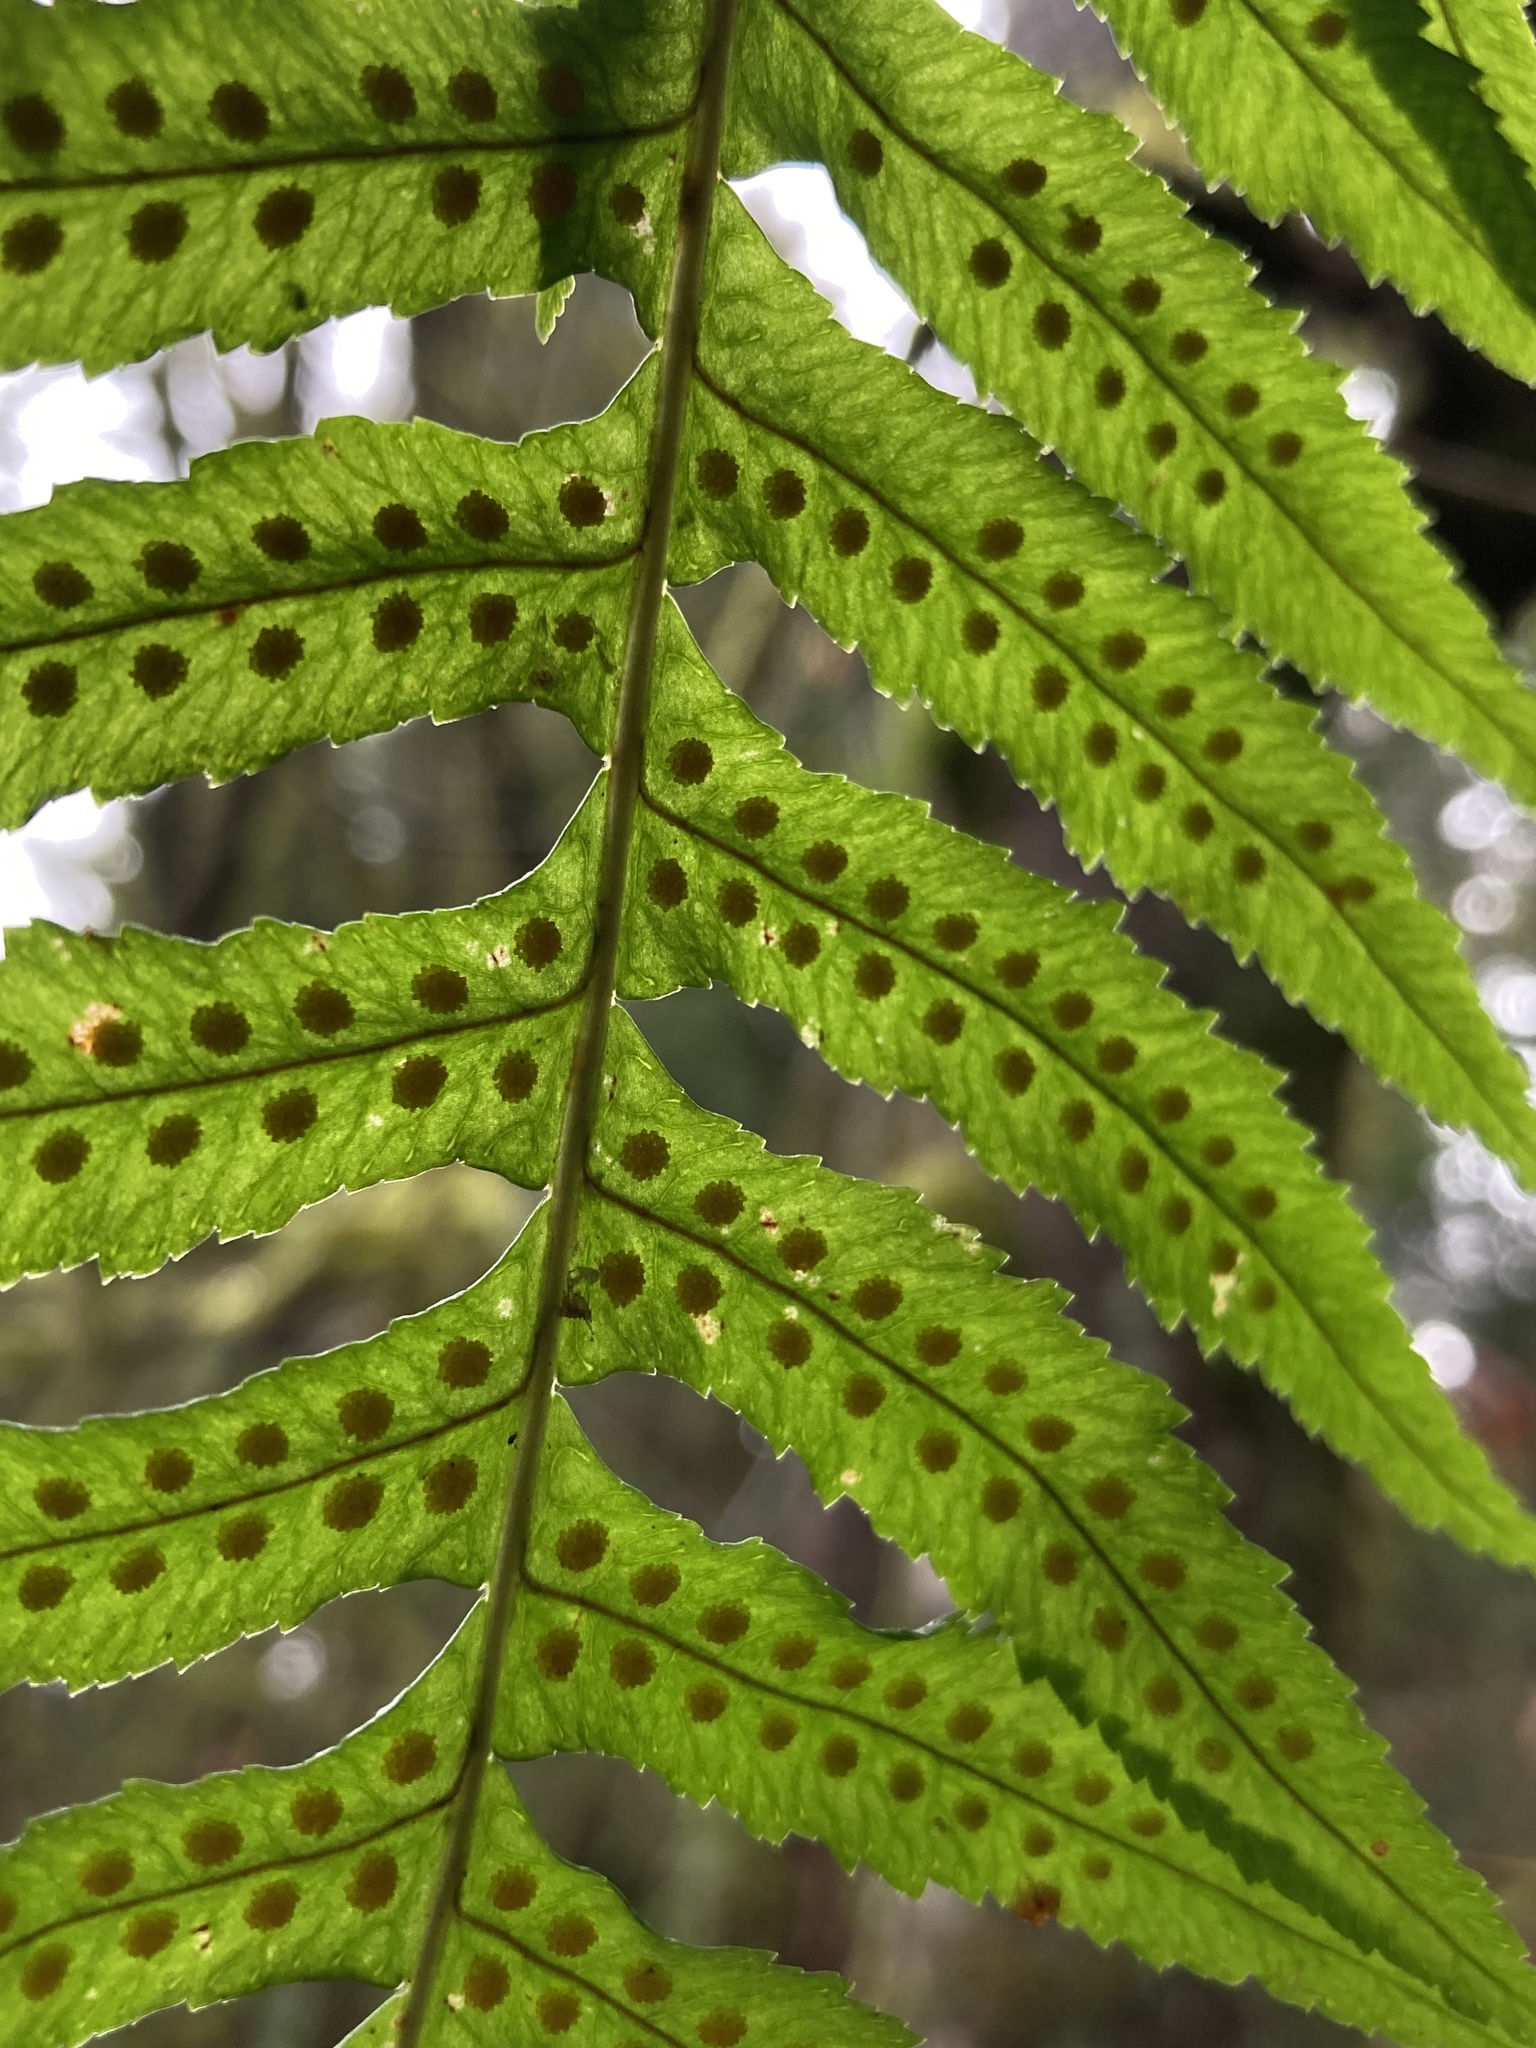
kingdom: Plantae
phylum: Tracheophyta
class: Polypodiopsida
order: Polypodiales
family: Polypodiaceae
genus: Polypodium
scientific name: Polypodium glycyrrhiza
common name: Licorice fern
